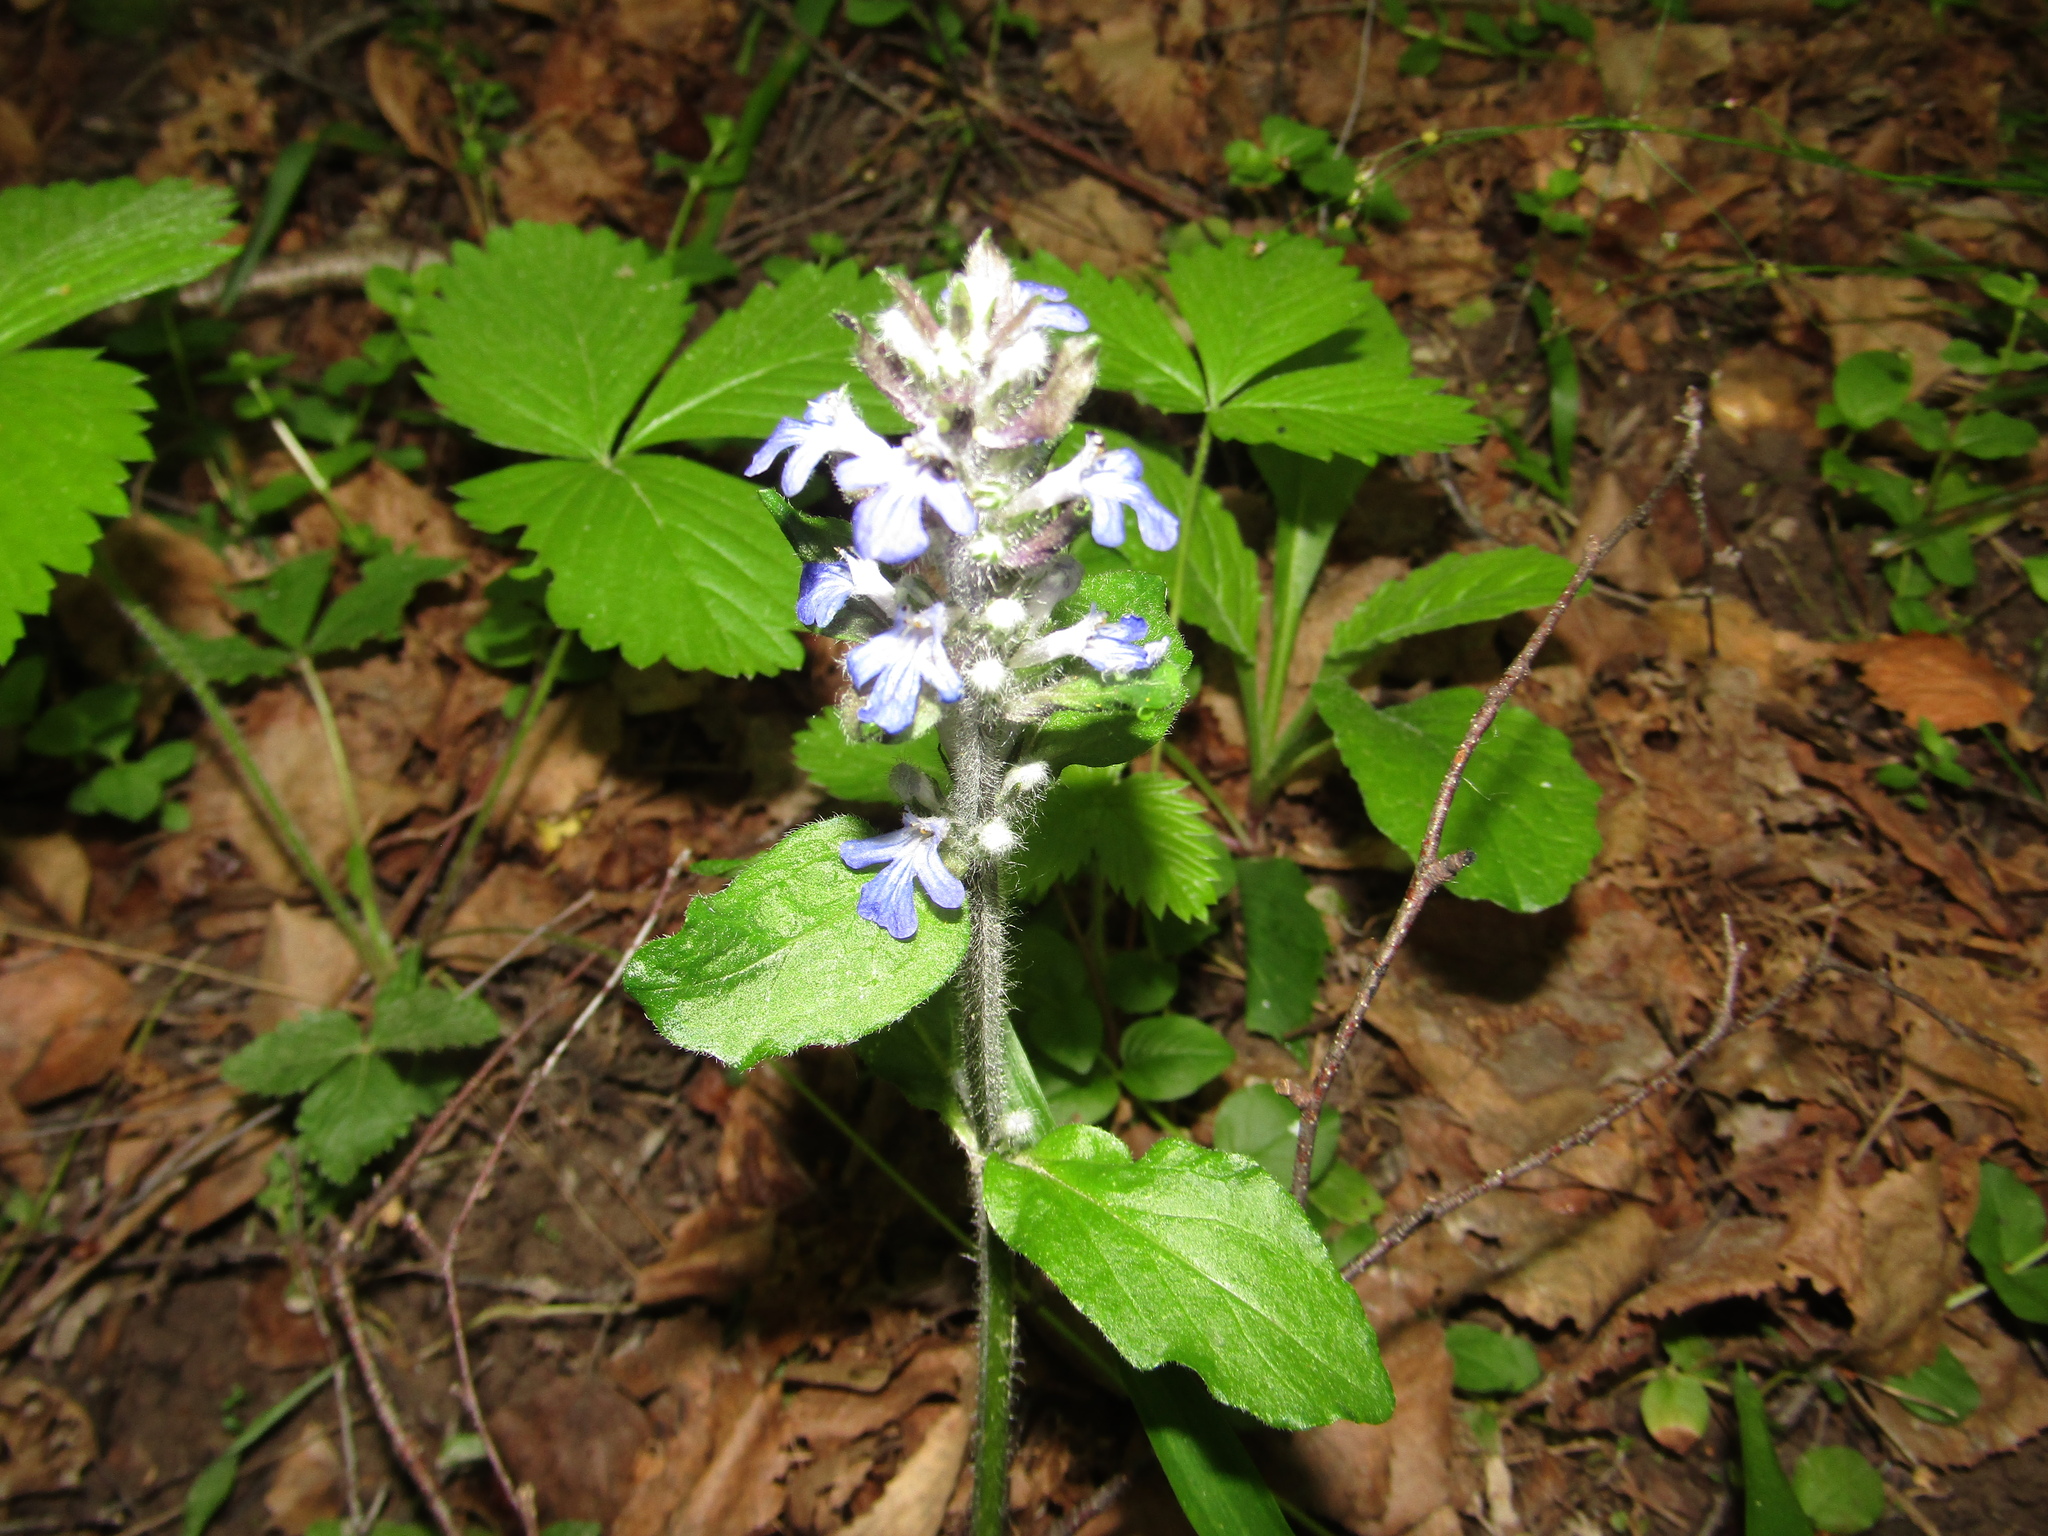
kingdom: Plantae
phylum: Tracheophyta
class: Magnoliopsida
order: Lamiales
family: Lamiaceae
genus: Ajuga
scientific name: Ajuga reptans
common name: Bugle
